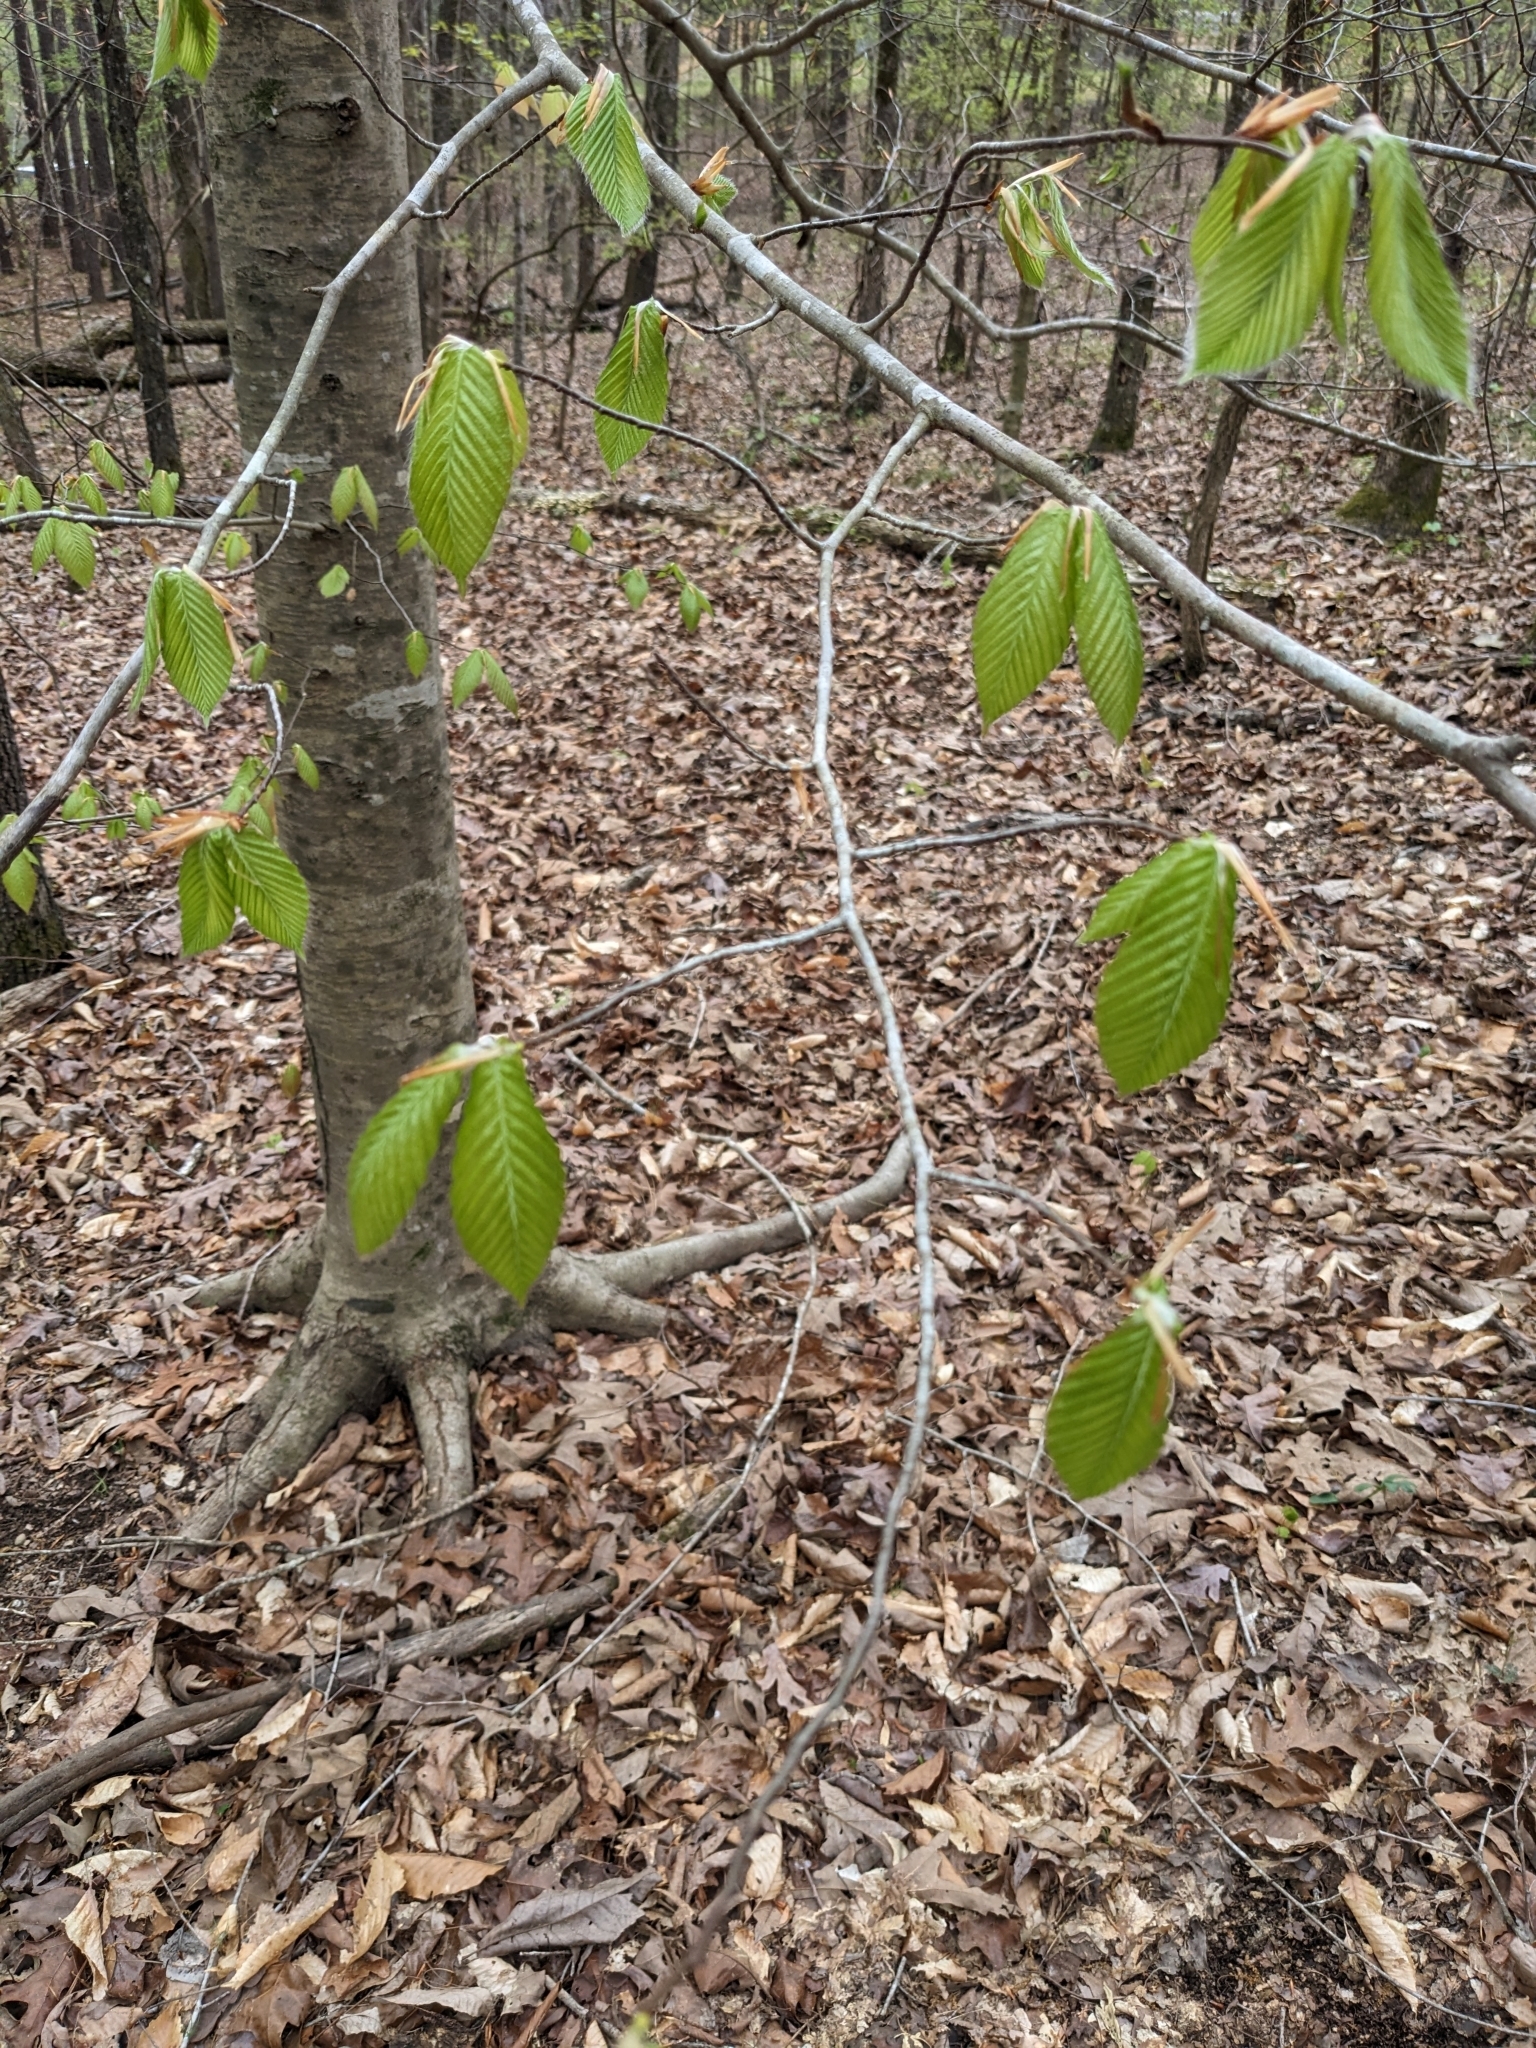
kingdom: Plantae
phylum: Tracheophyta
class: Magnoliopsida
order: Fagales
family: Fagaceae
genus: Fagus
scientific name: Fagus grandifolia
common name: American beech
